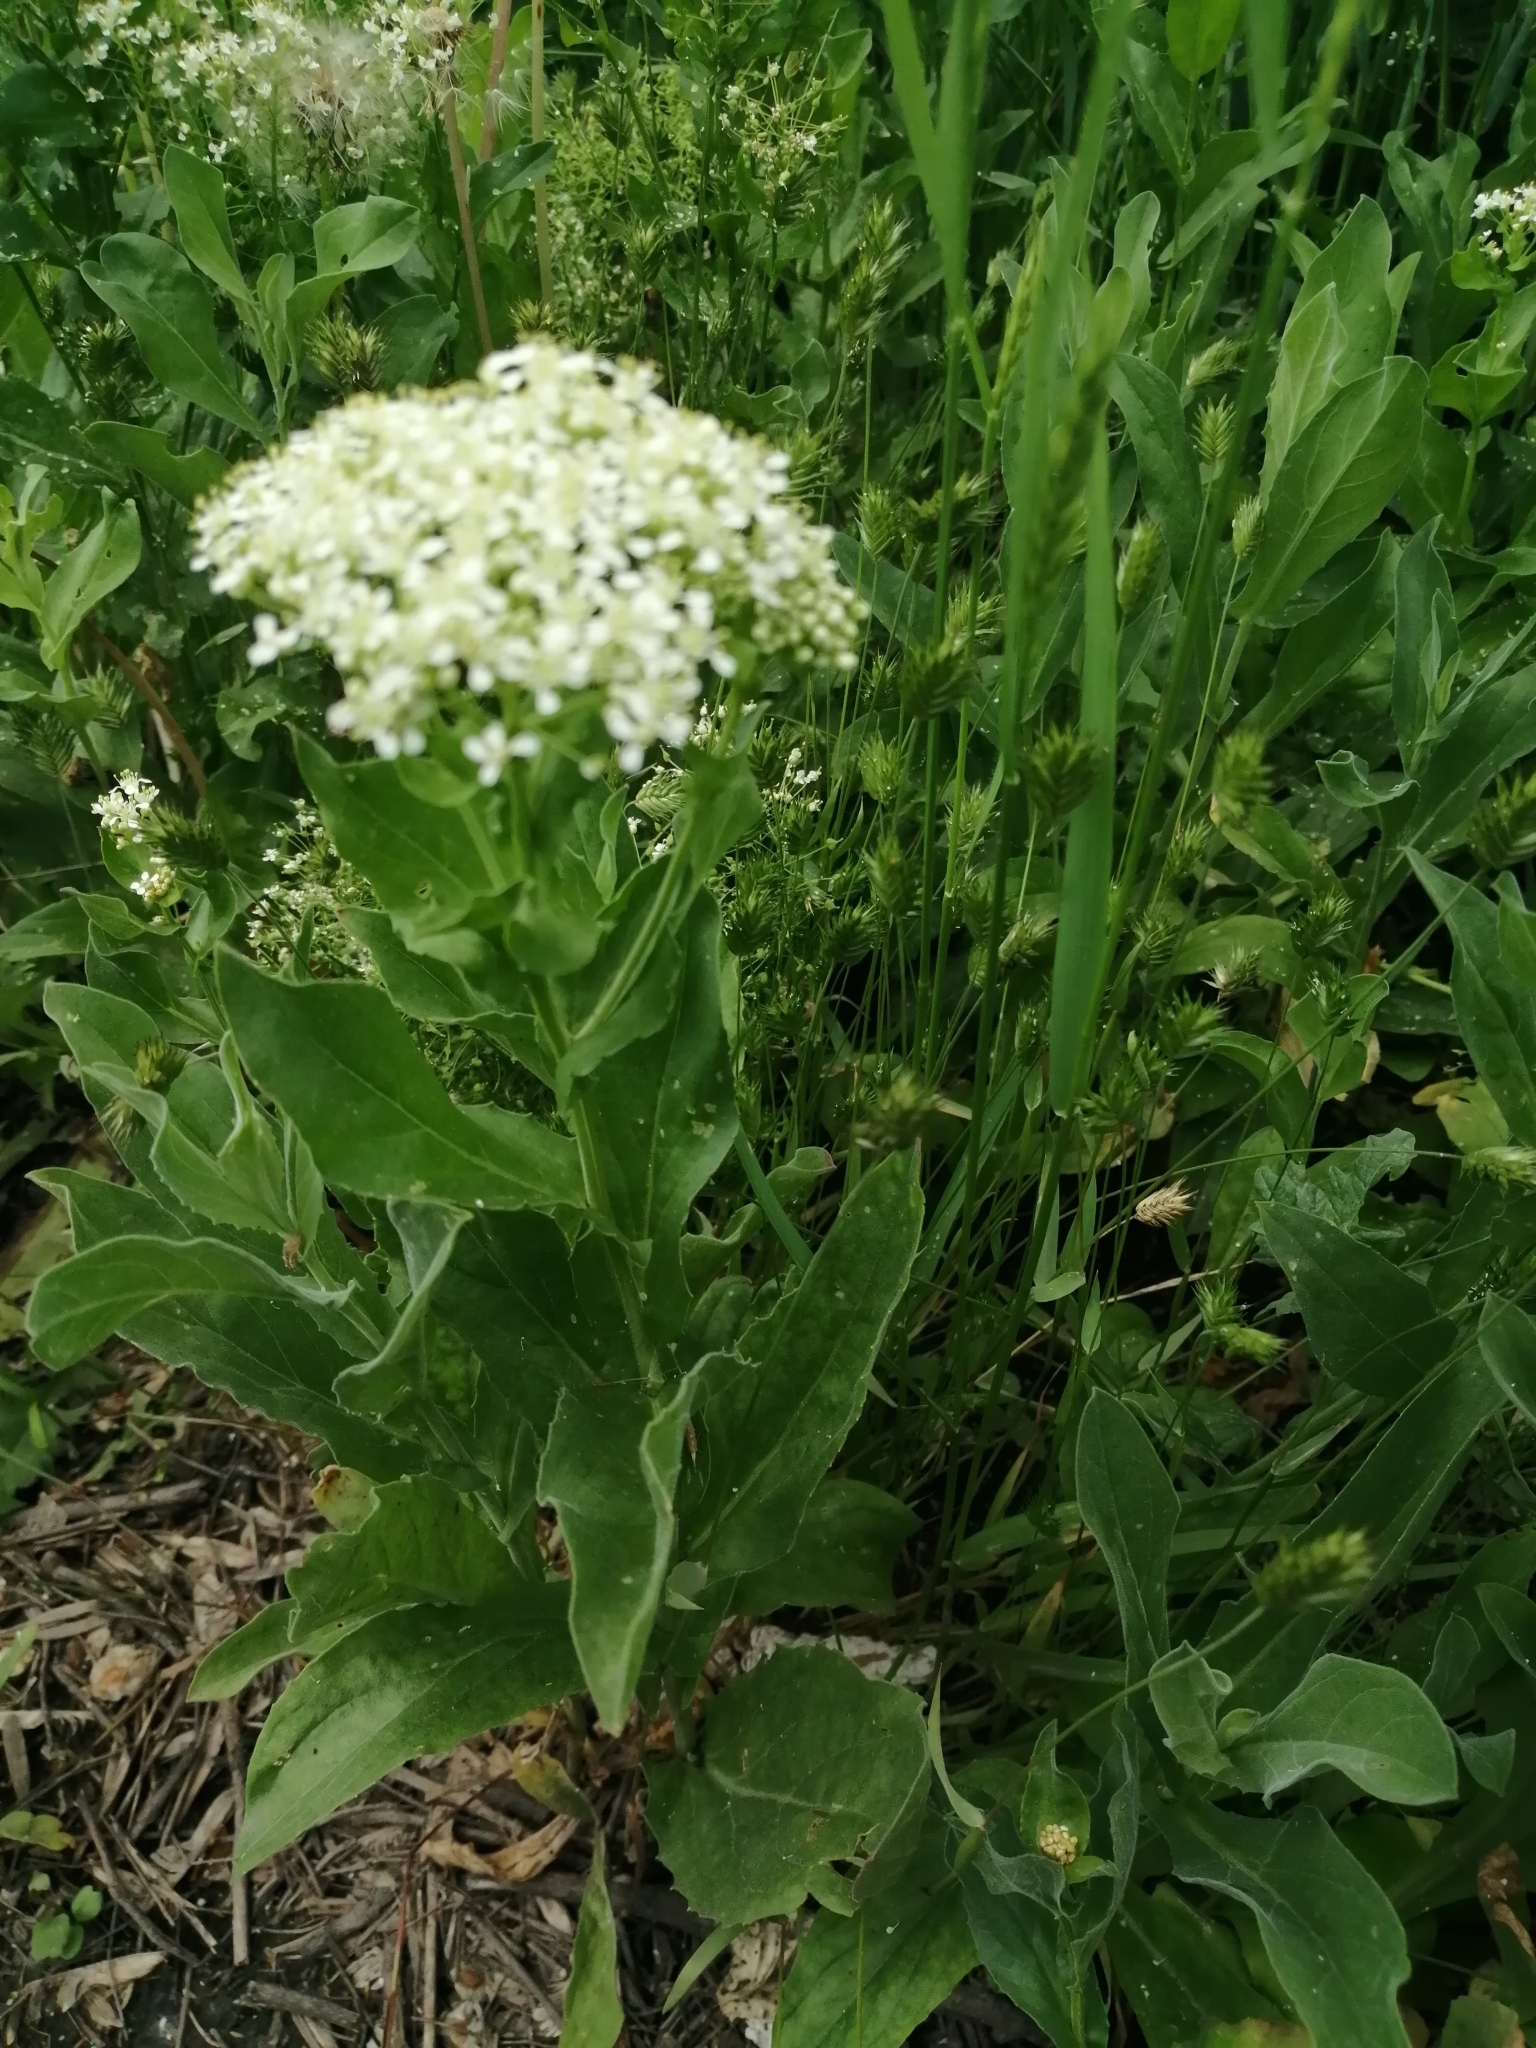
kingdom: Plantae
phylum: Tracheophyta
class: Magnoliopsida
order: Brassicales
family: Brassicaceae
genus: Lepidium
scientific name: Lepidium draba
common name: Hoary cress
